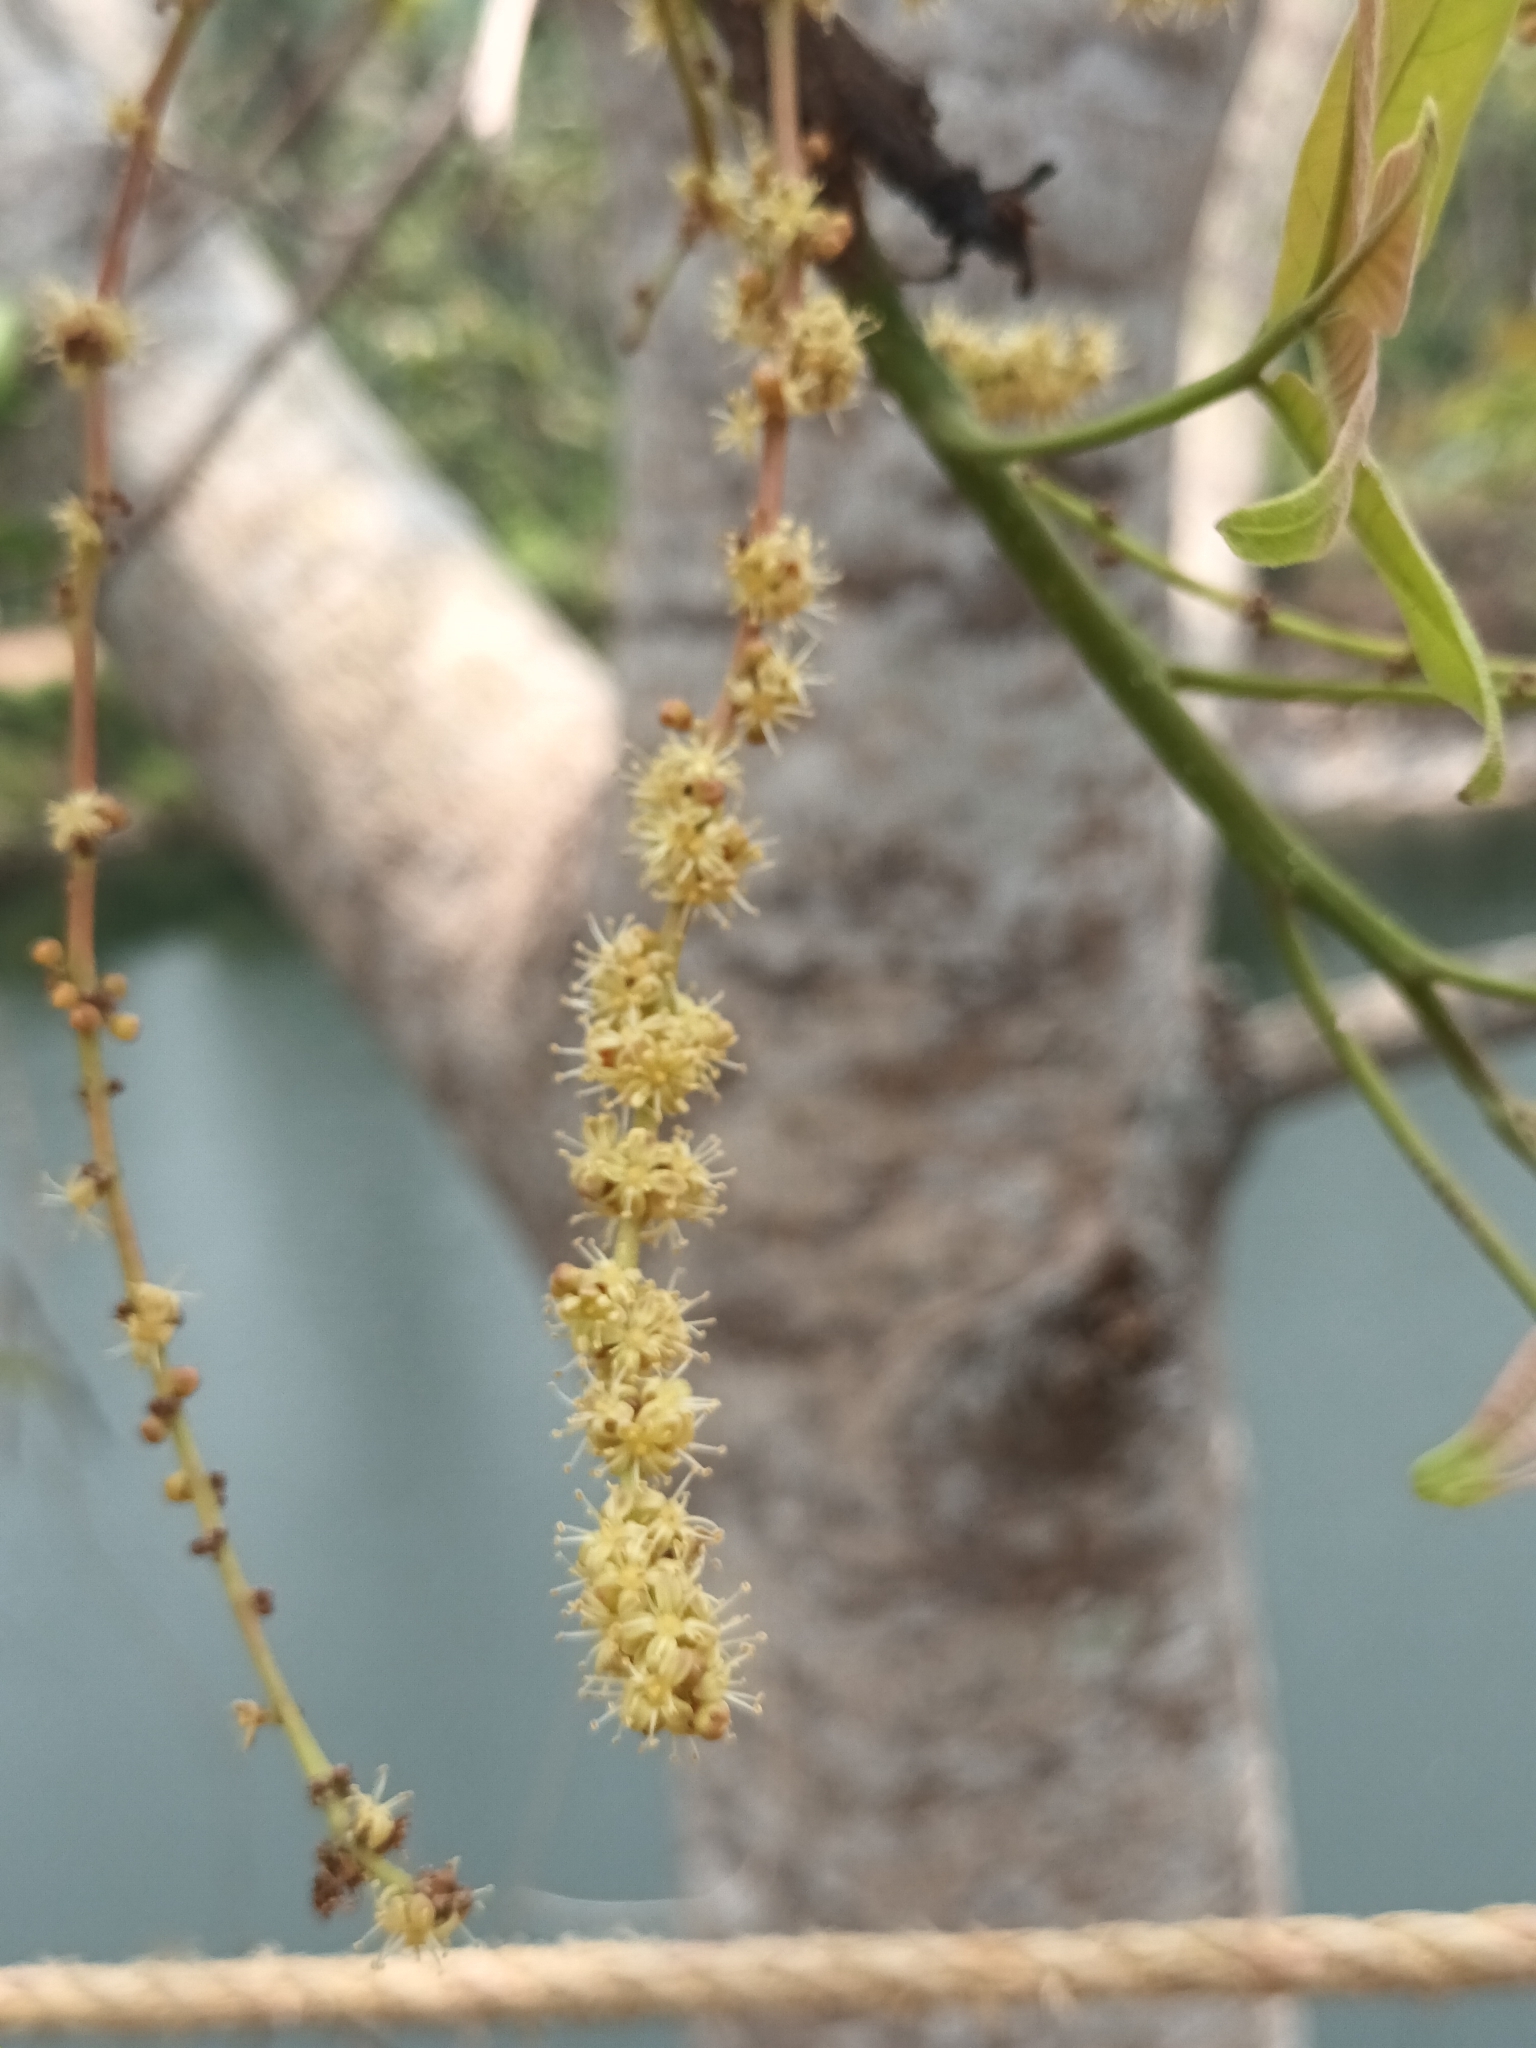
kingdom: Plantae
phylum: Tracheophyta
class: Magnoliopsida
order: Sapindales
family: Anacardiaceae
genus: Lannea
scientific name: Lannea coromandelica
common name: Indian ash tree
